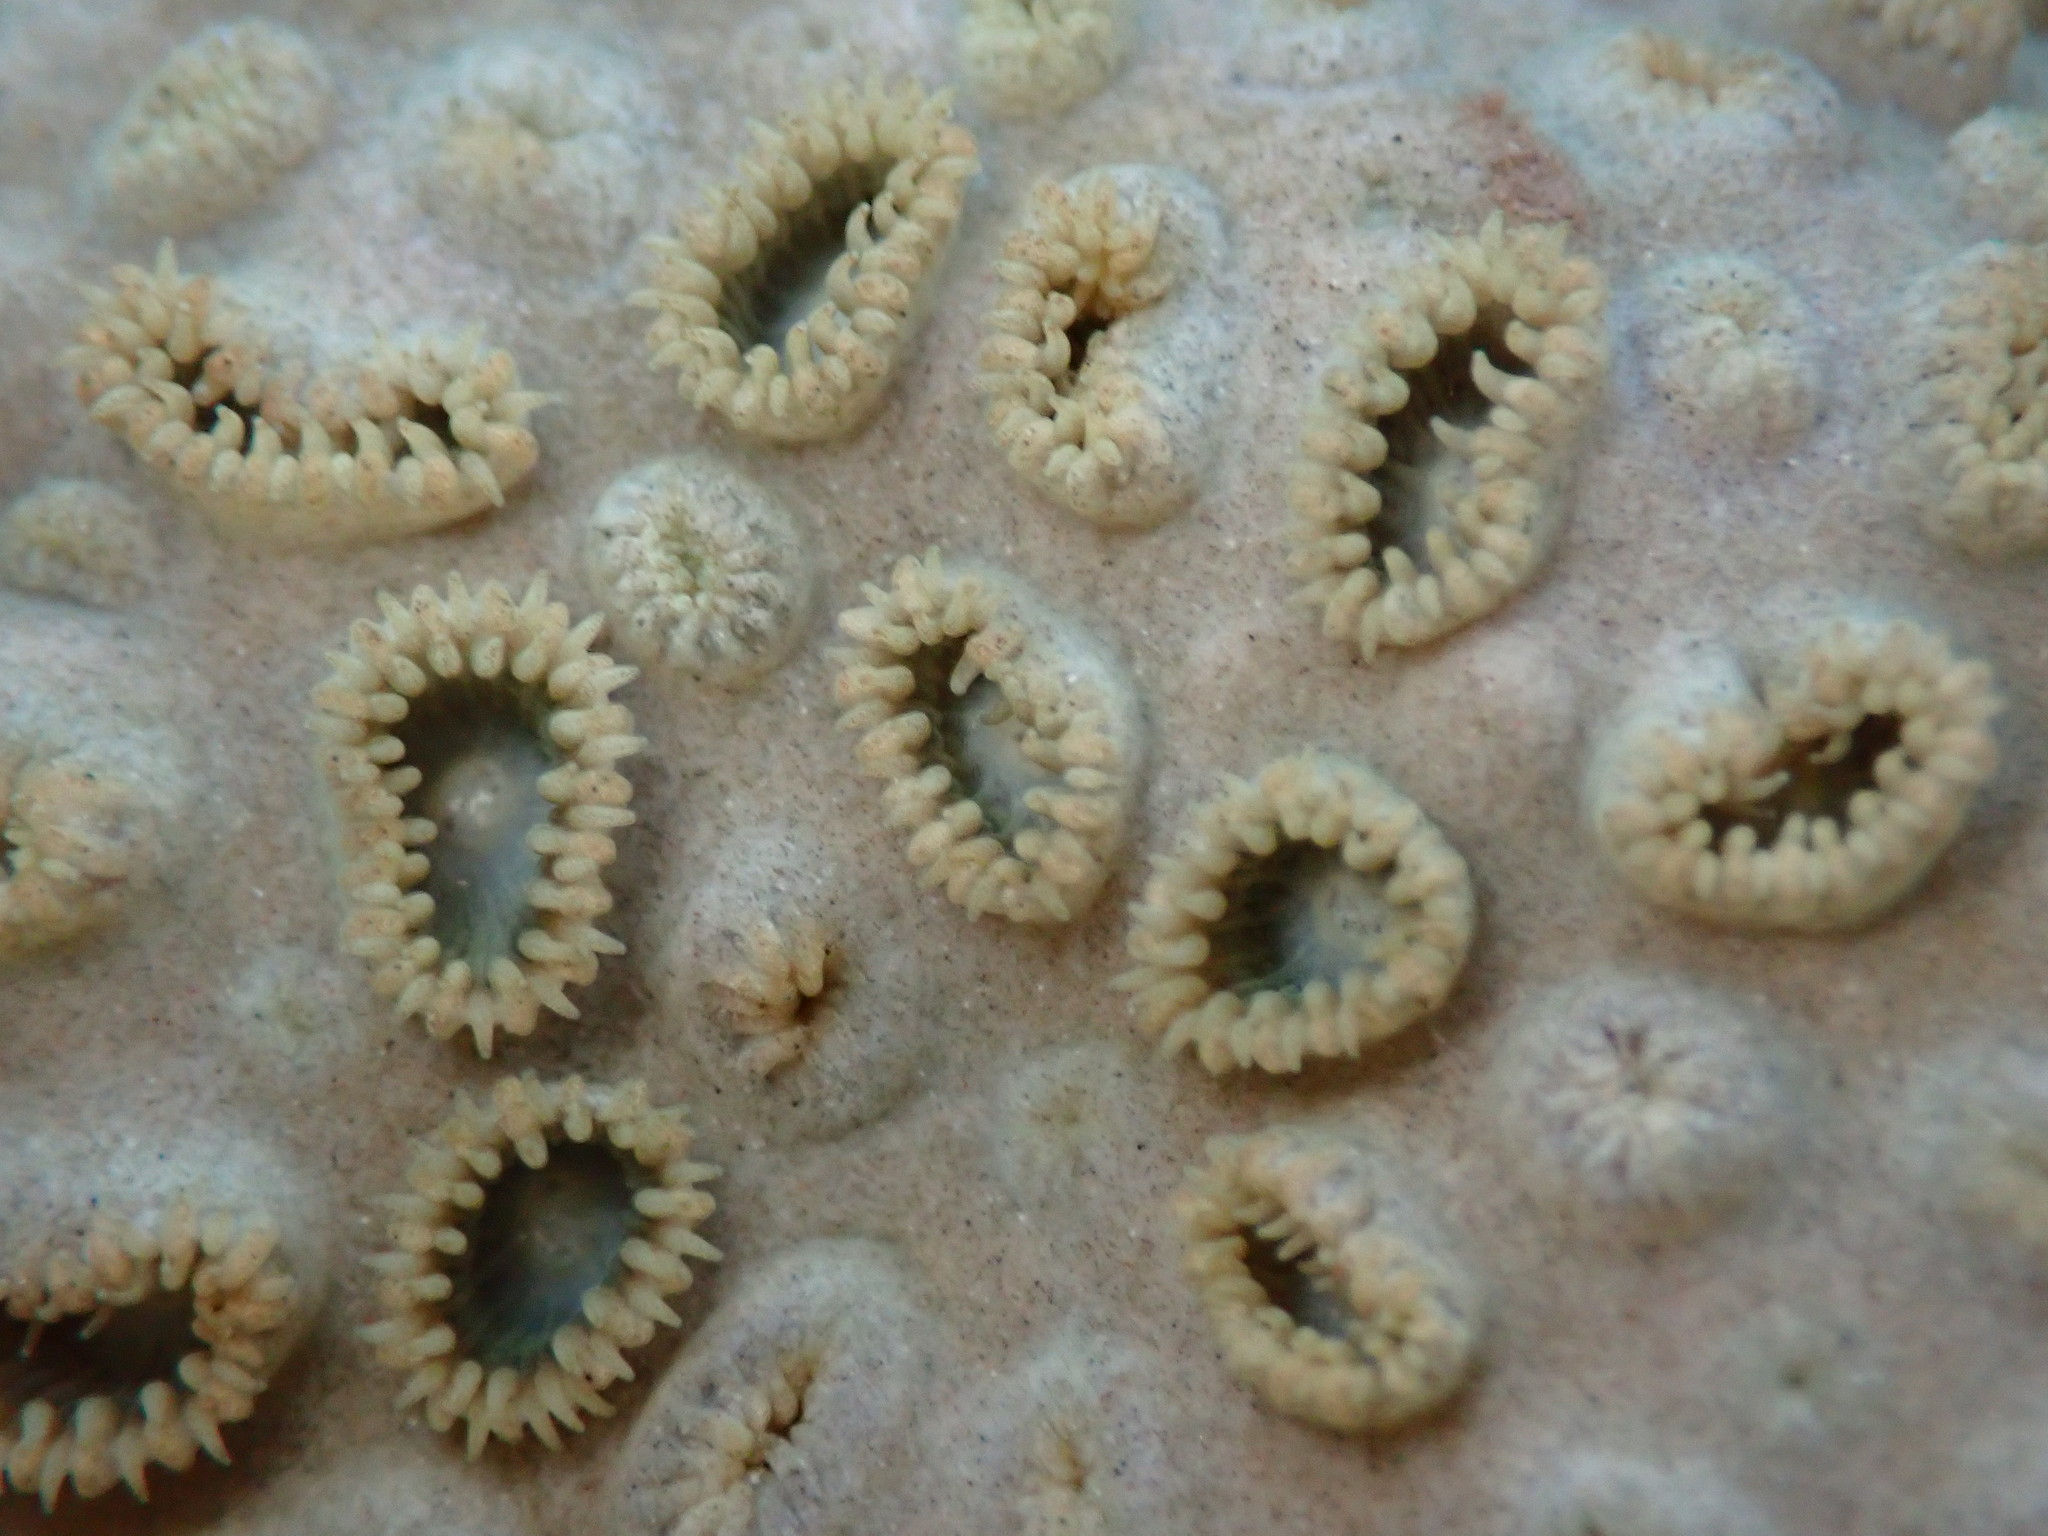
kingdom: Animalia
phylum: Cnidaria
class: Anthozoa
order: Zoantharia
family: Sphenopidae
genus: Palythoa
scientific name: Palythoa tuberculosa
